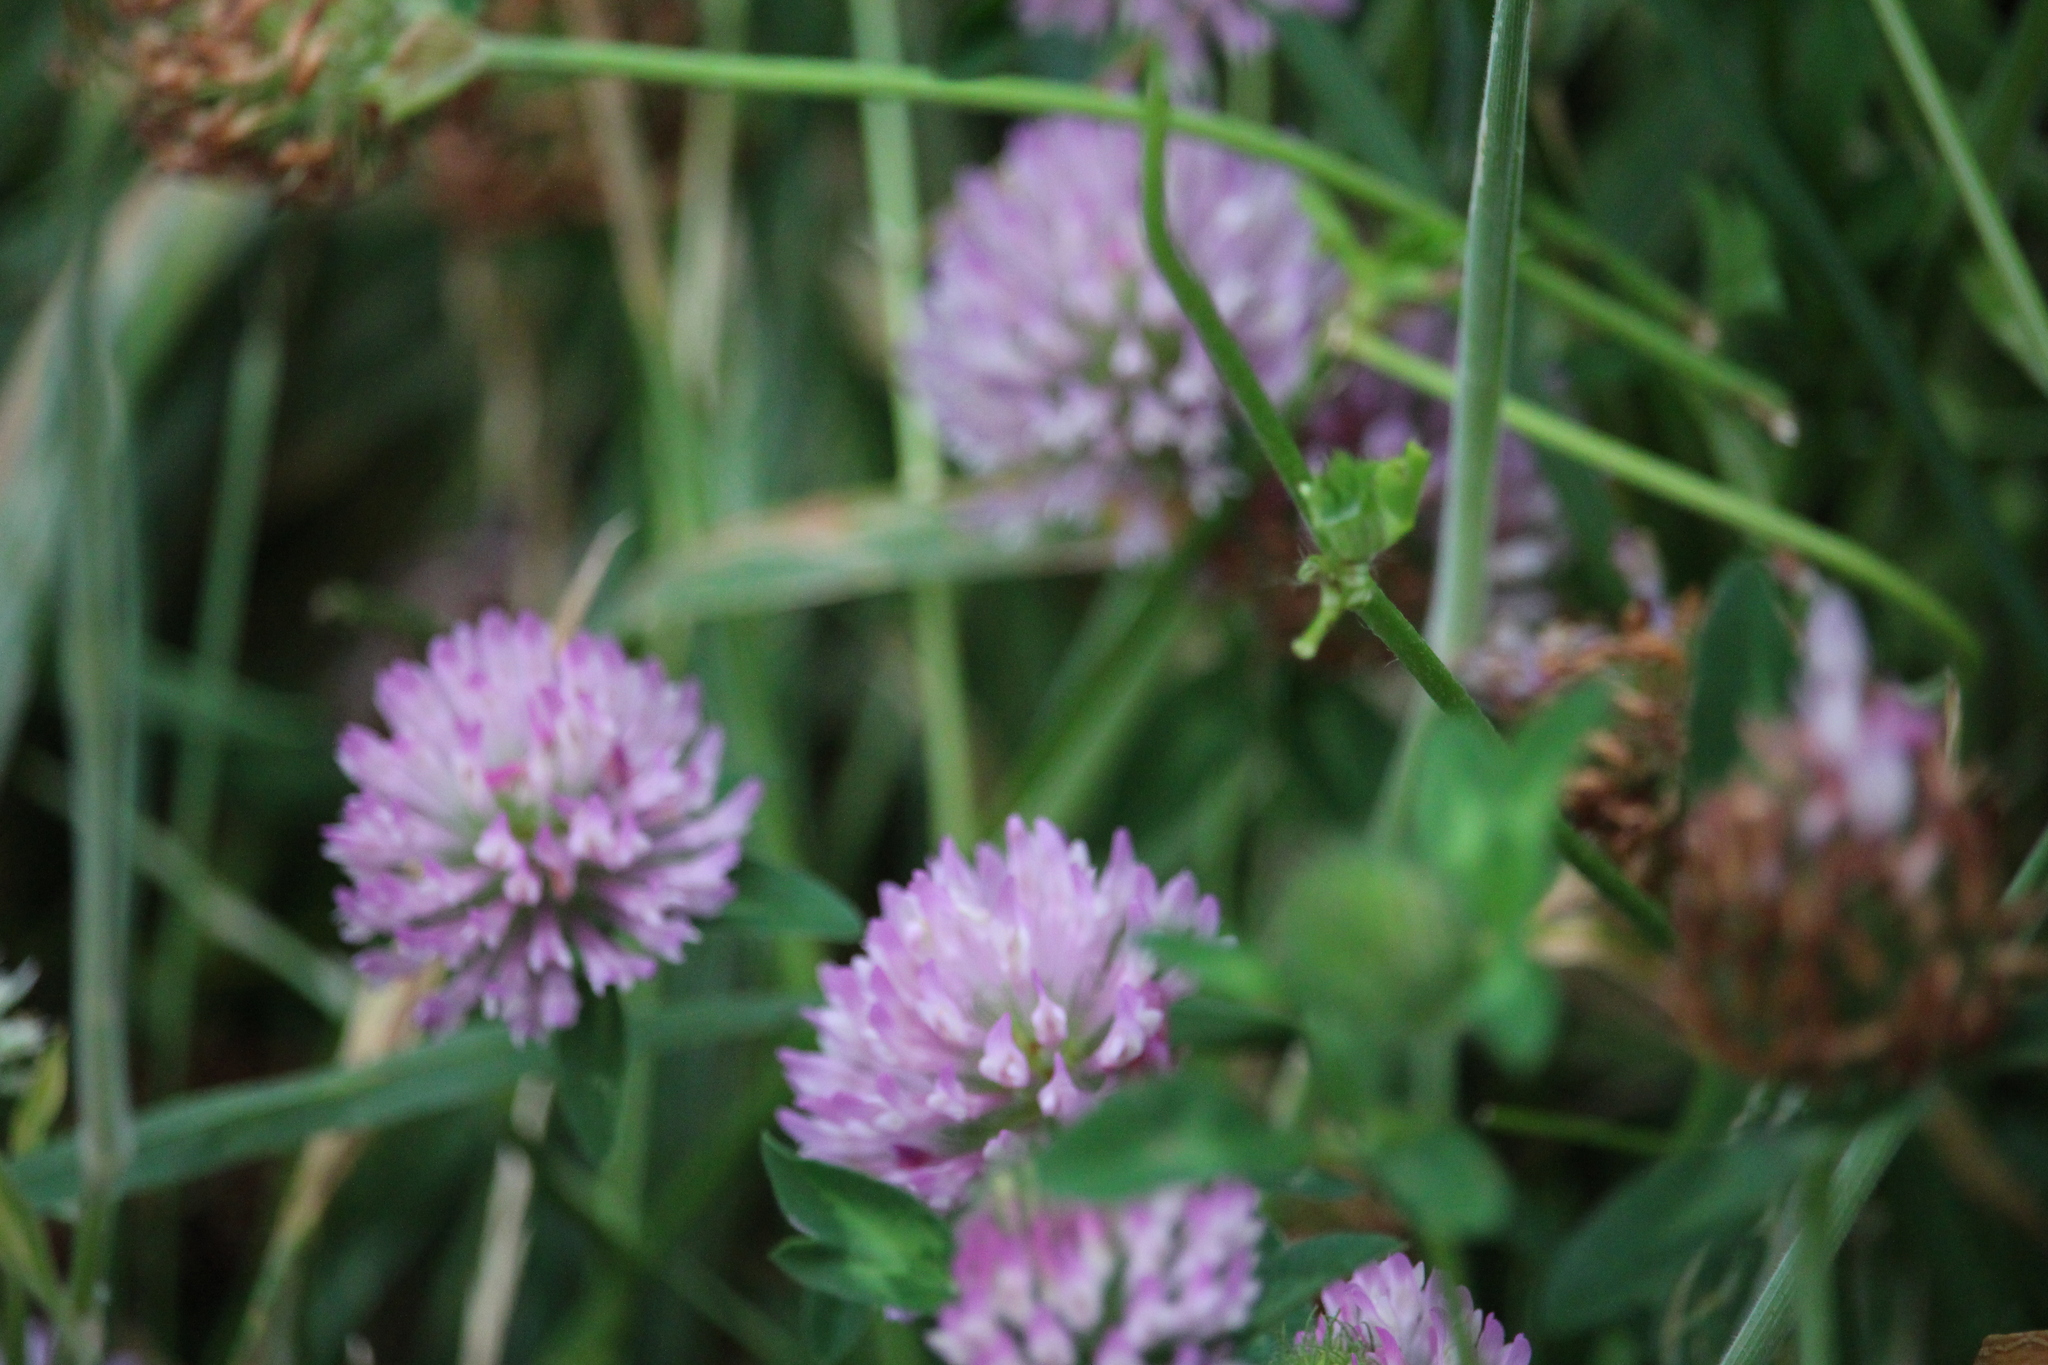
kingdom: Plantae
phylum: Tracheophyta
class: Magnoliopsida
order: Fabales
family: Fabaceae
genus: Trifolium
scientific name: Trifolium pratense
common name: Red clover
